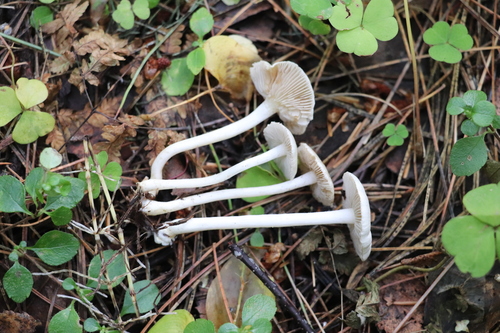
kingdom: Fungi
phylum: Basidiomycota
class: Agaricomycetes
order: Agaricales
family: Inocybaceae
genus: Inocybe
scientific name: Inocybe geophylla
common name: White fibrecap
